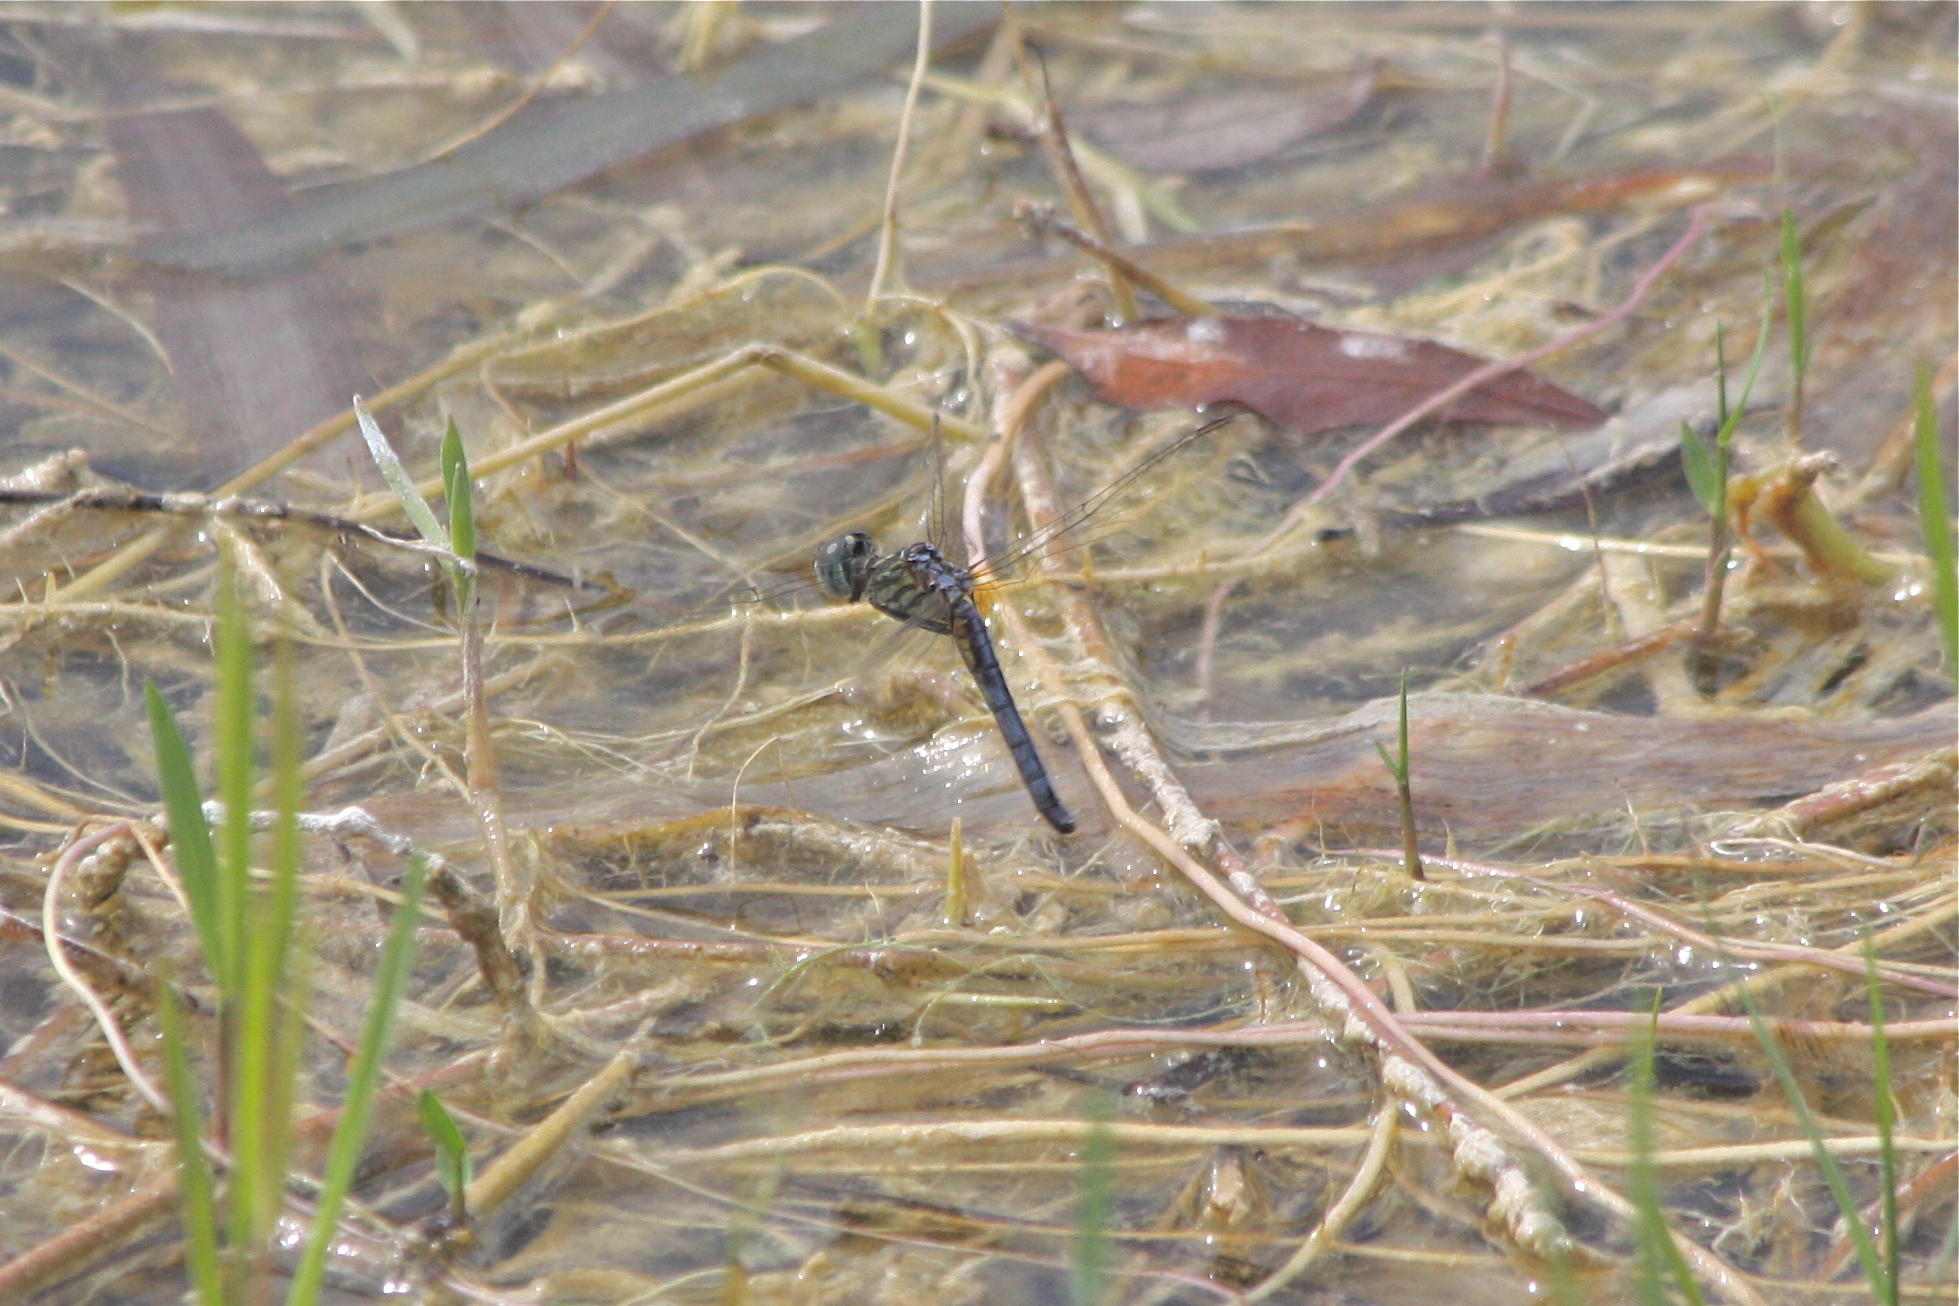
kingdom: Animalia
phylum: Arthropoda
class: Insecta
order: Odonata
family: Libellulidae
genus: Pachydiplax
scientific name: Pachydiplax longipennis
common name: Blue dasher
